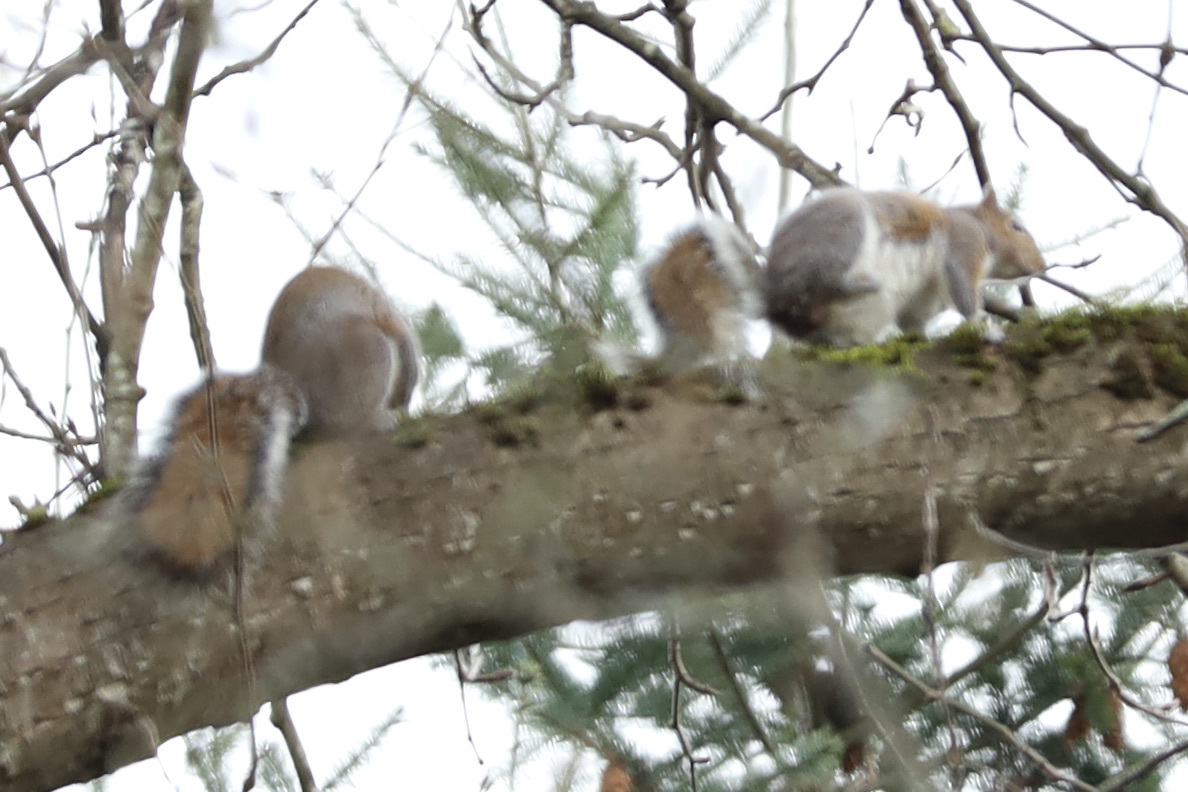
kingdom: Animalia
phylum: Chordata
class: Mammalia
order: Rodentia
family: Sciuridae
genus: Sciurus
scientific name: Sciurus carolinensis
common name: Eastern gray squirrel
